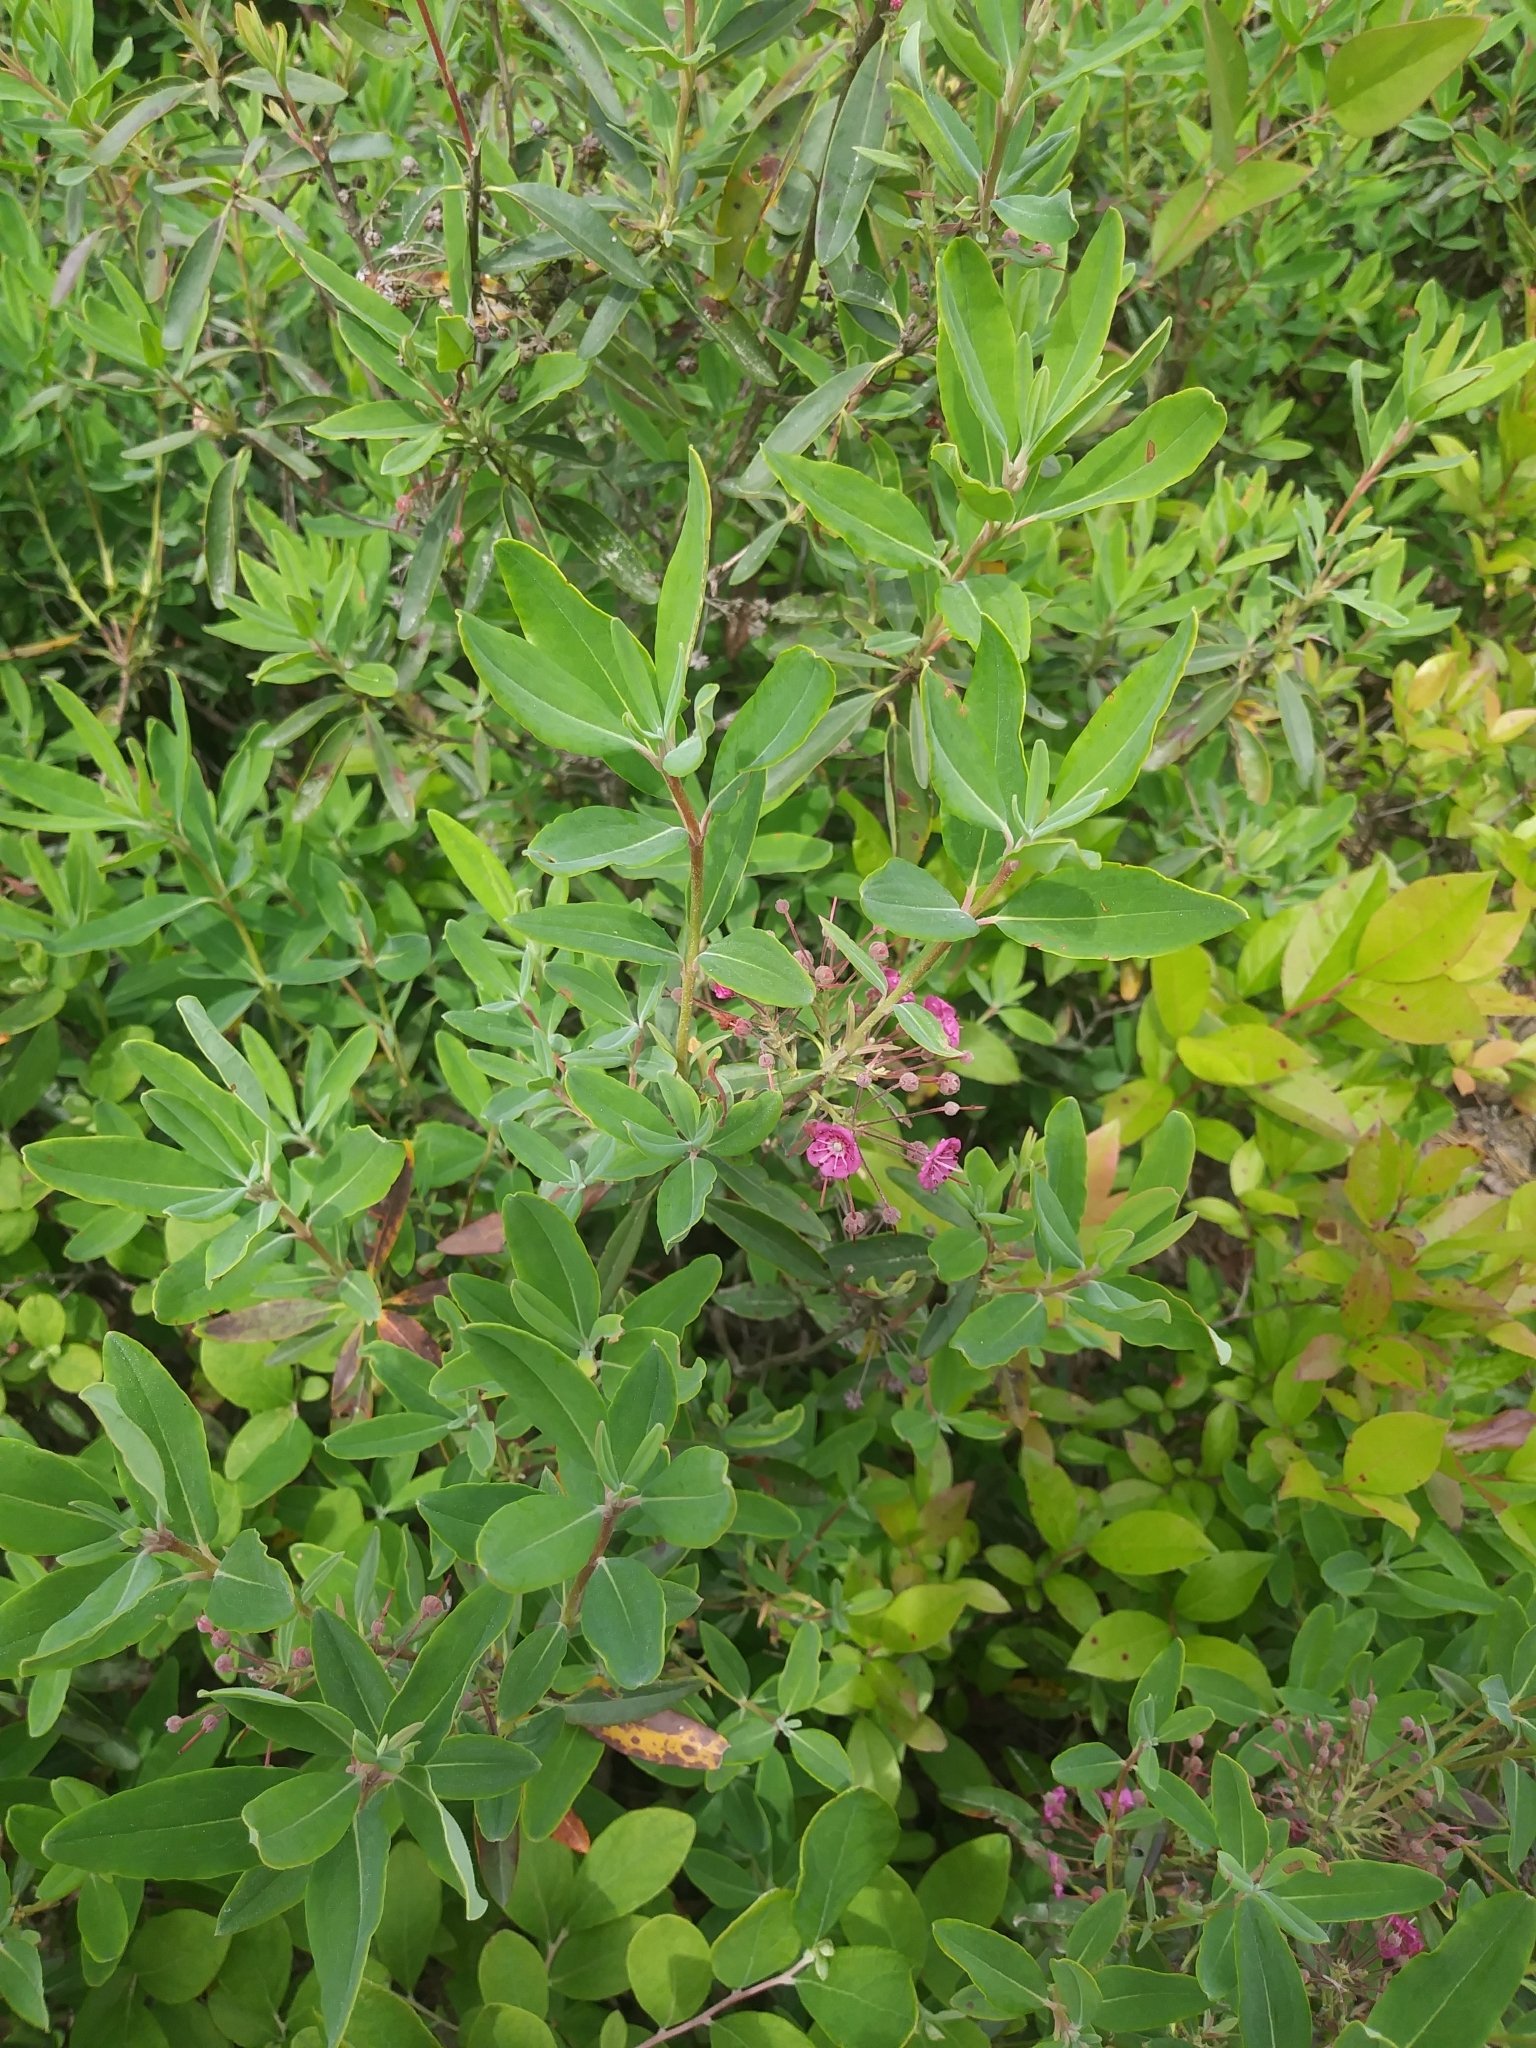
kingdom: Plantae
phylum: Tracheophyta
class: Magnoliopsida
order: Ericales
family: Ericaceae
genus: Kalmia
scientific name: Kalmia angustifolia
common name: Sheep-laurel
